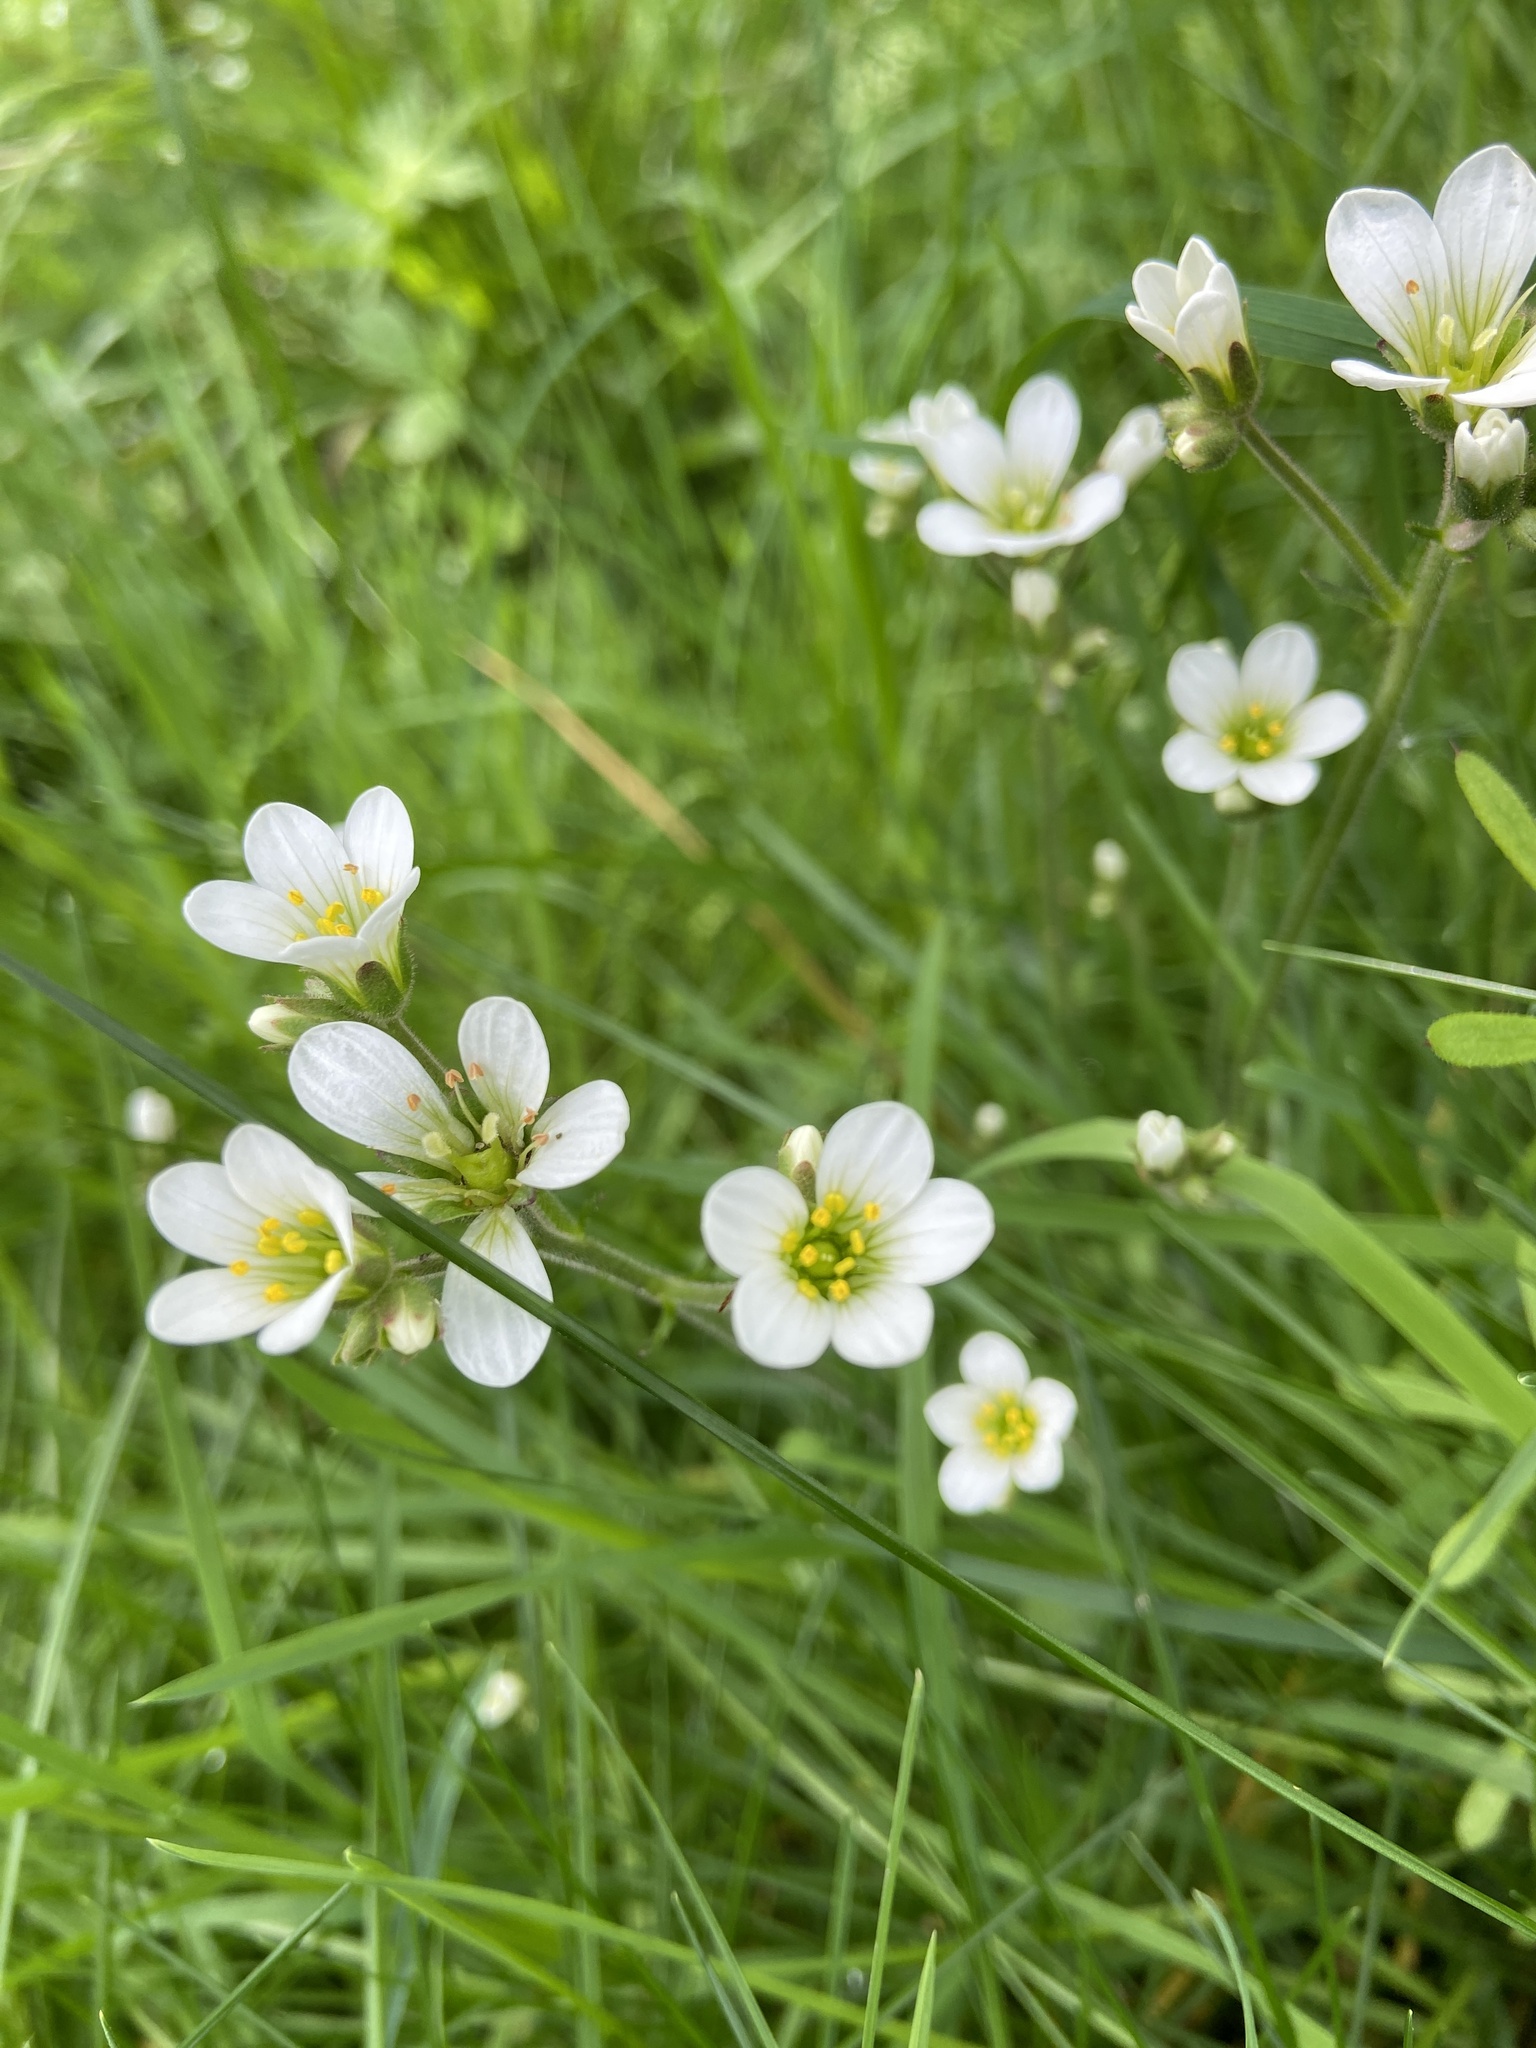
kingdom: Plantae
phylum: Tracheophyta
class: Magnoliopsida
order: Saxifragales
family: Saxifragaceae
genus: Saxifraga
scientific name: Saxifraga granulata
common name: Meadow saxifrage
